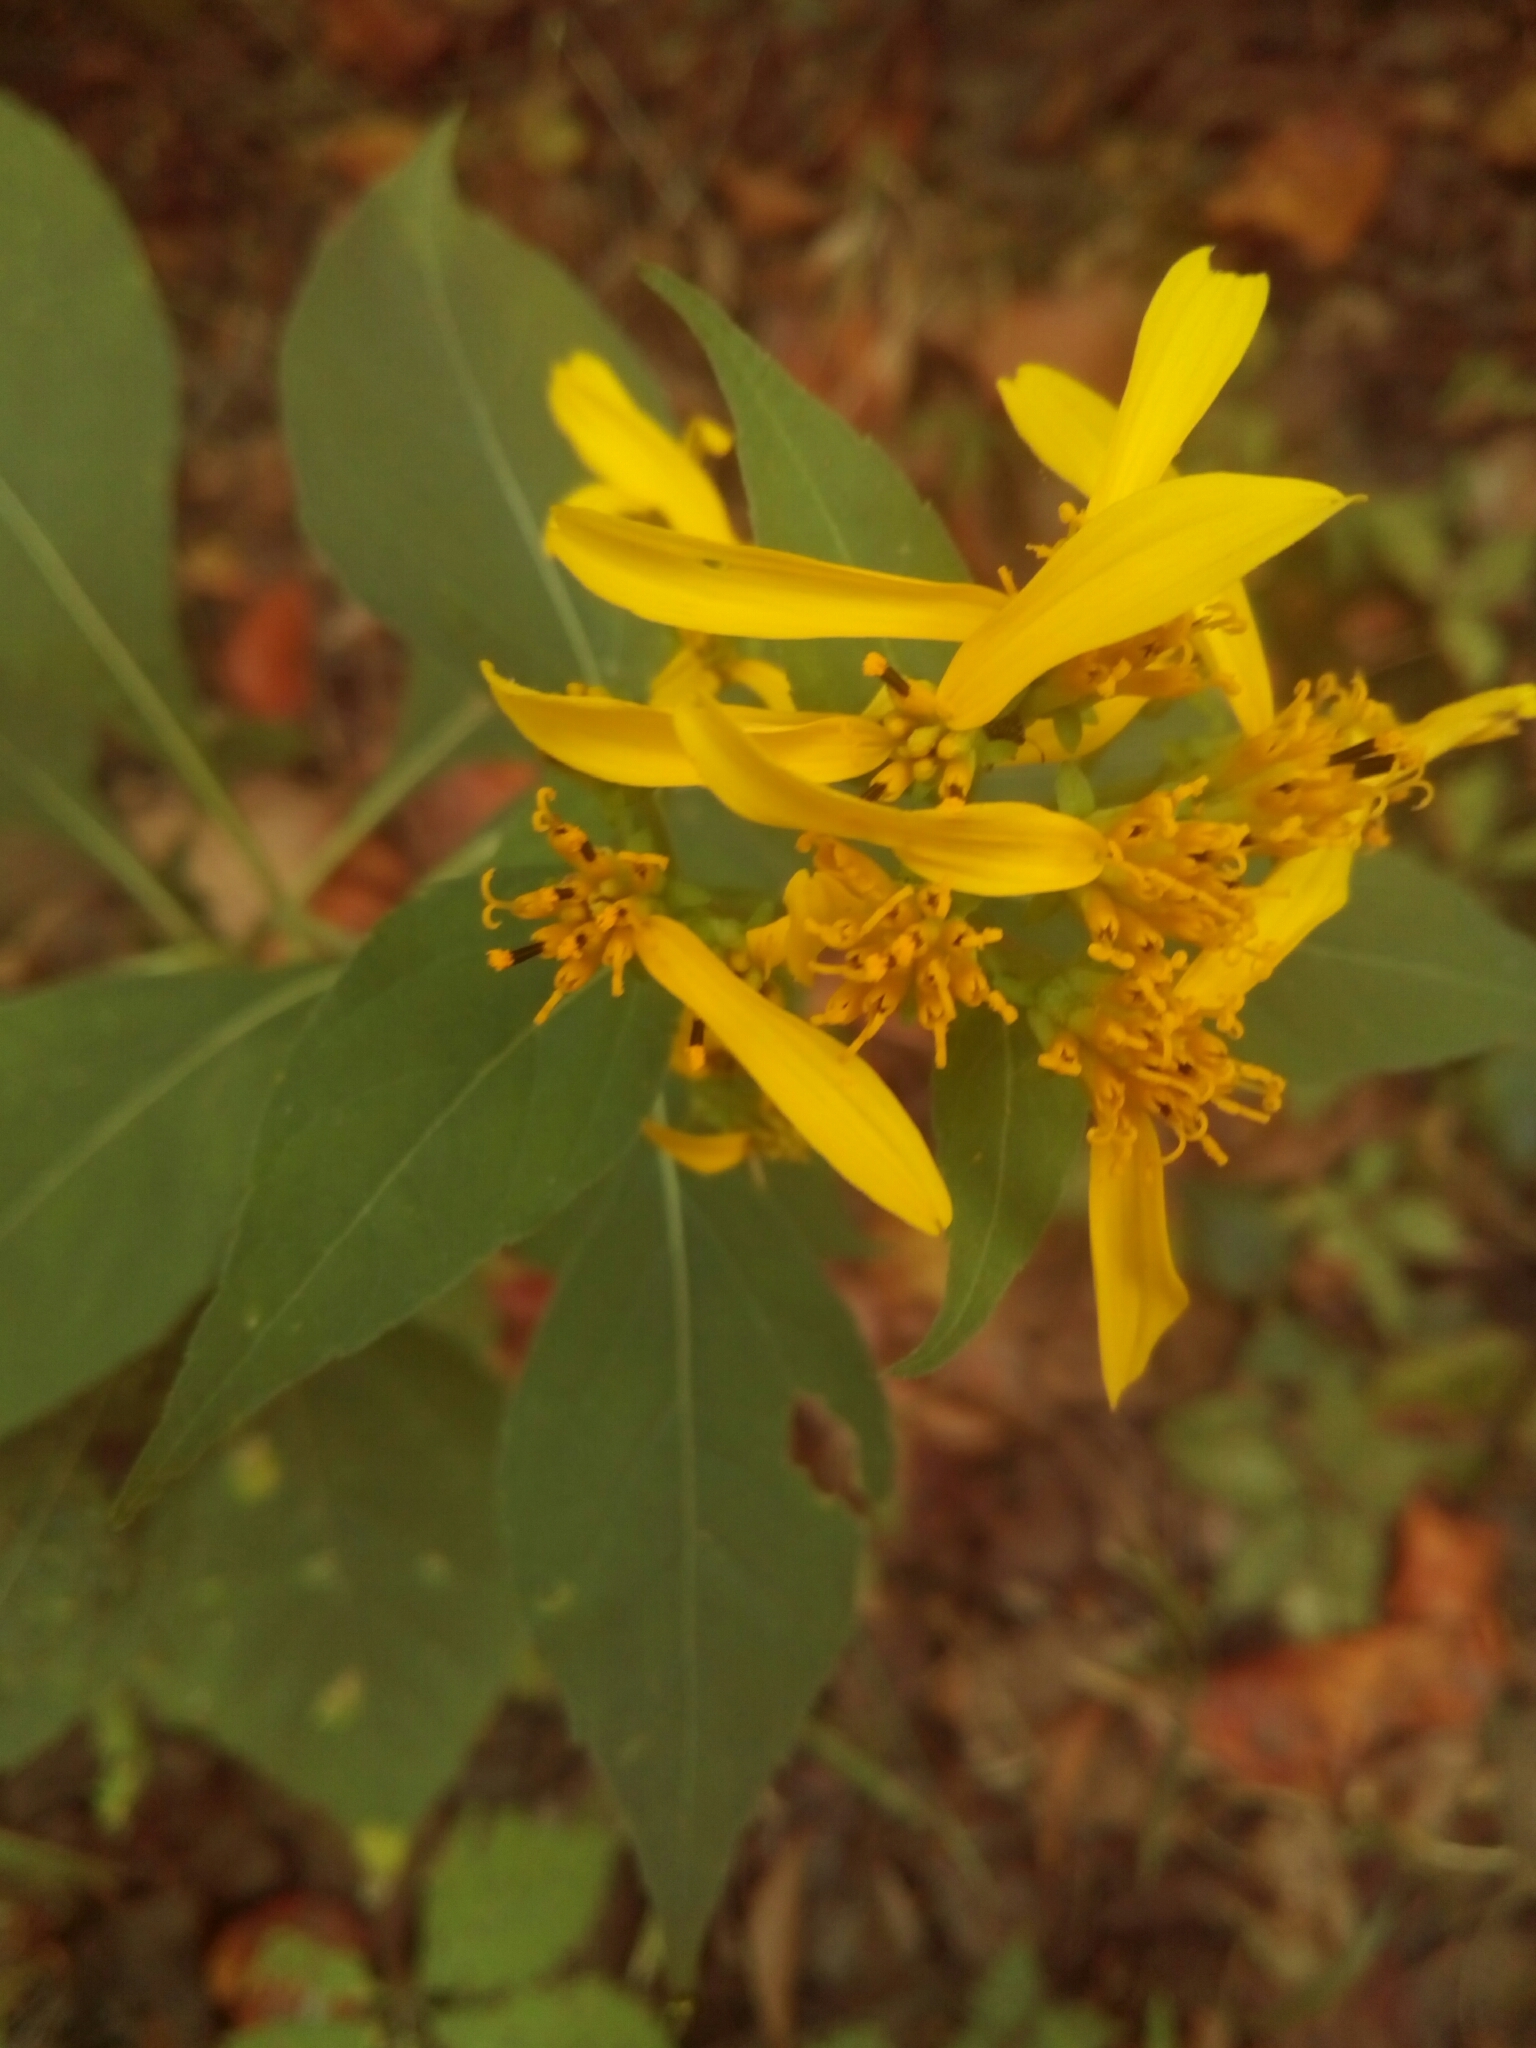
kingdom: Plantae
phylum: Tracheophyta
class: Magnoliopsida
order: Asterales
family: Asteraceae
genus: Verbesina
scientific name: Verbesina occidentalis
